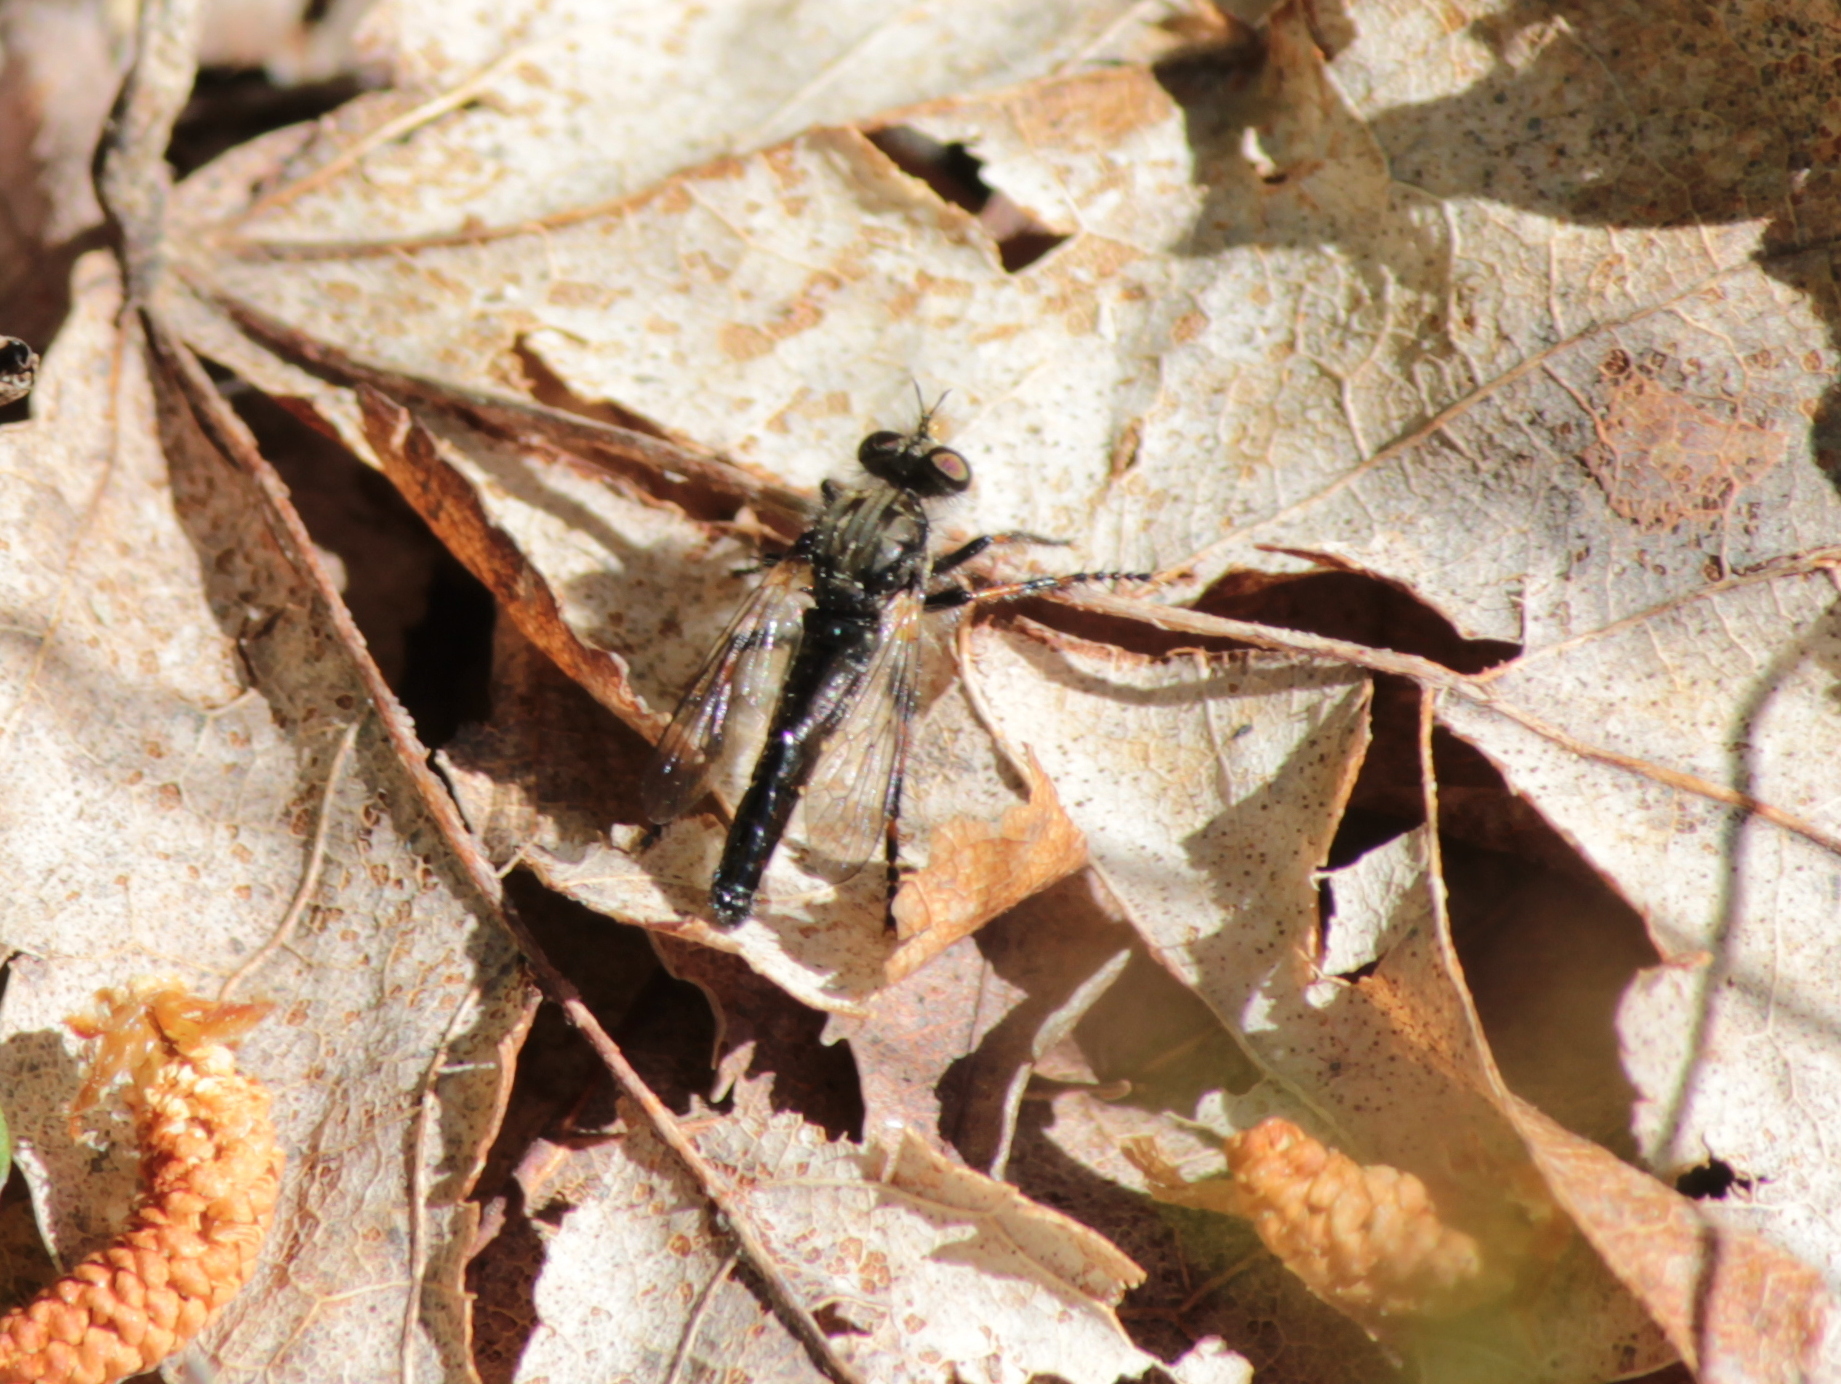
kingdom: Animalia
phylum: Arthropoda
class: Insecta
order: Diptera
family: Asilidae
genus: Cyrtopogon
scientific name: Cyrtopogon falto
